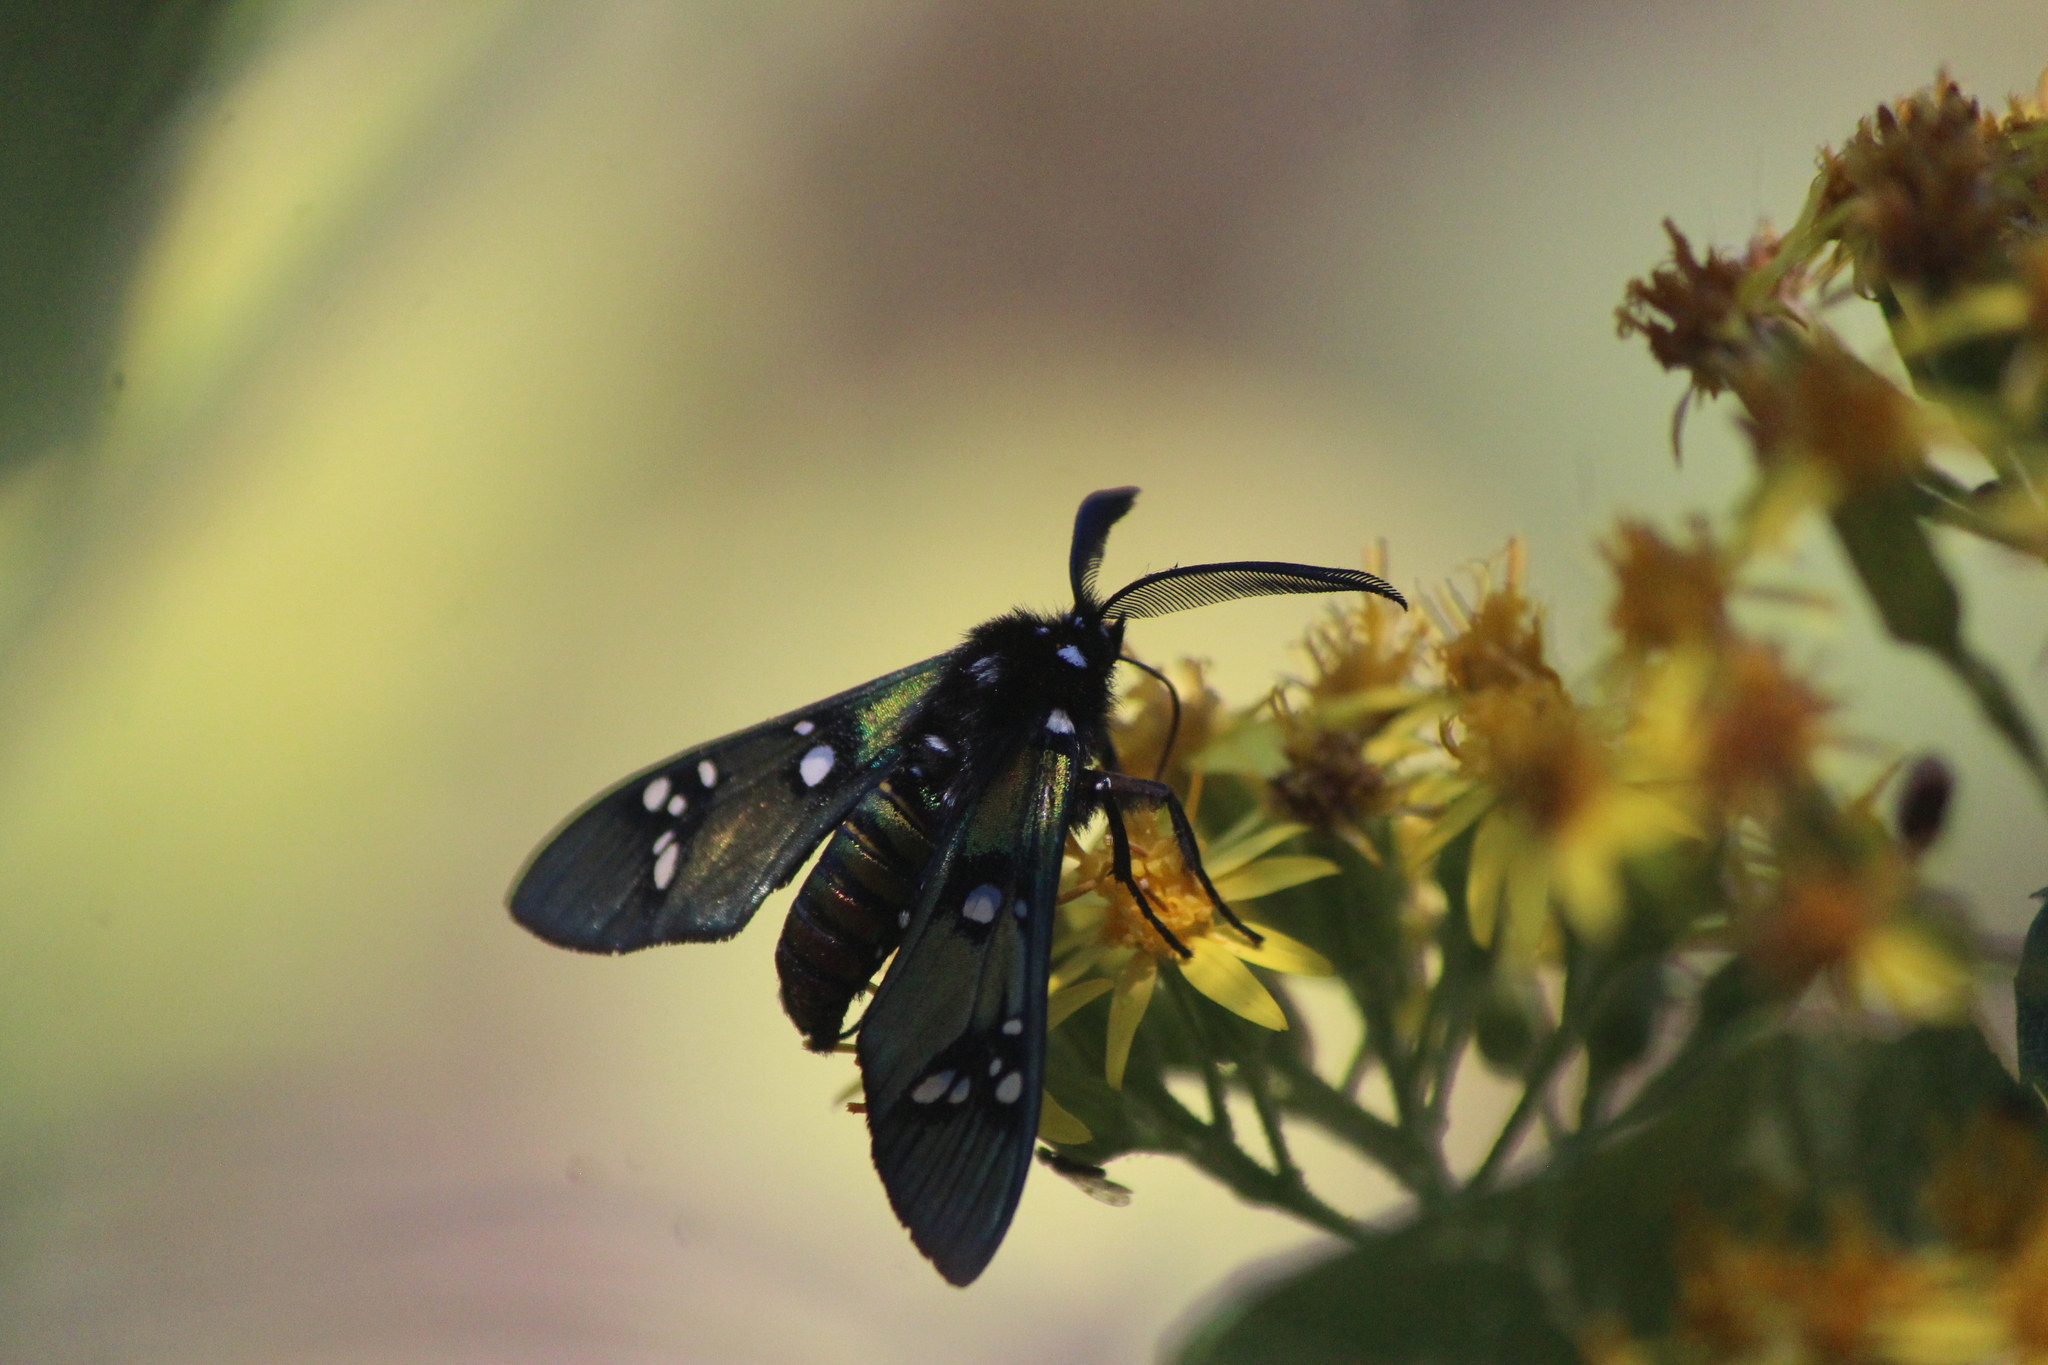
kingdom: Animalia
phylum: Arthropoda
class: Insecta
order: Lepidoptera
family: Erebidae
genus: Chrysocale
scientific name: Chrysocale principalis
